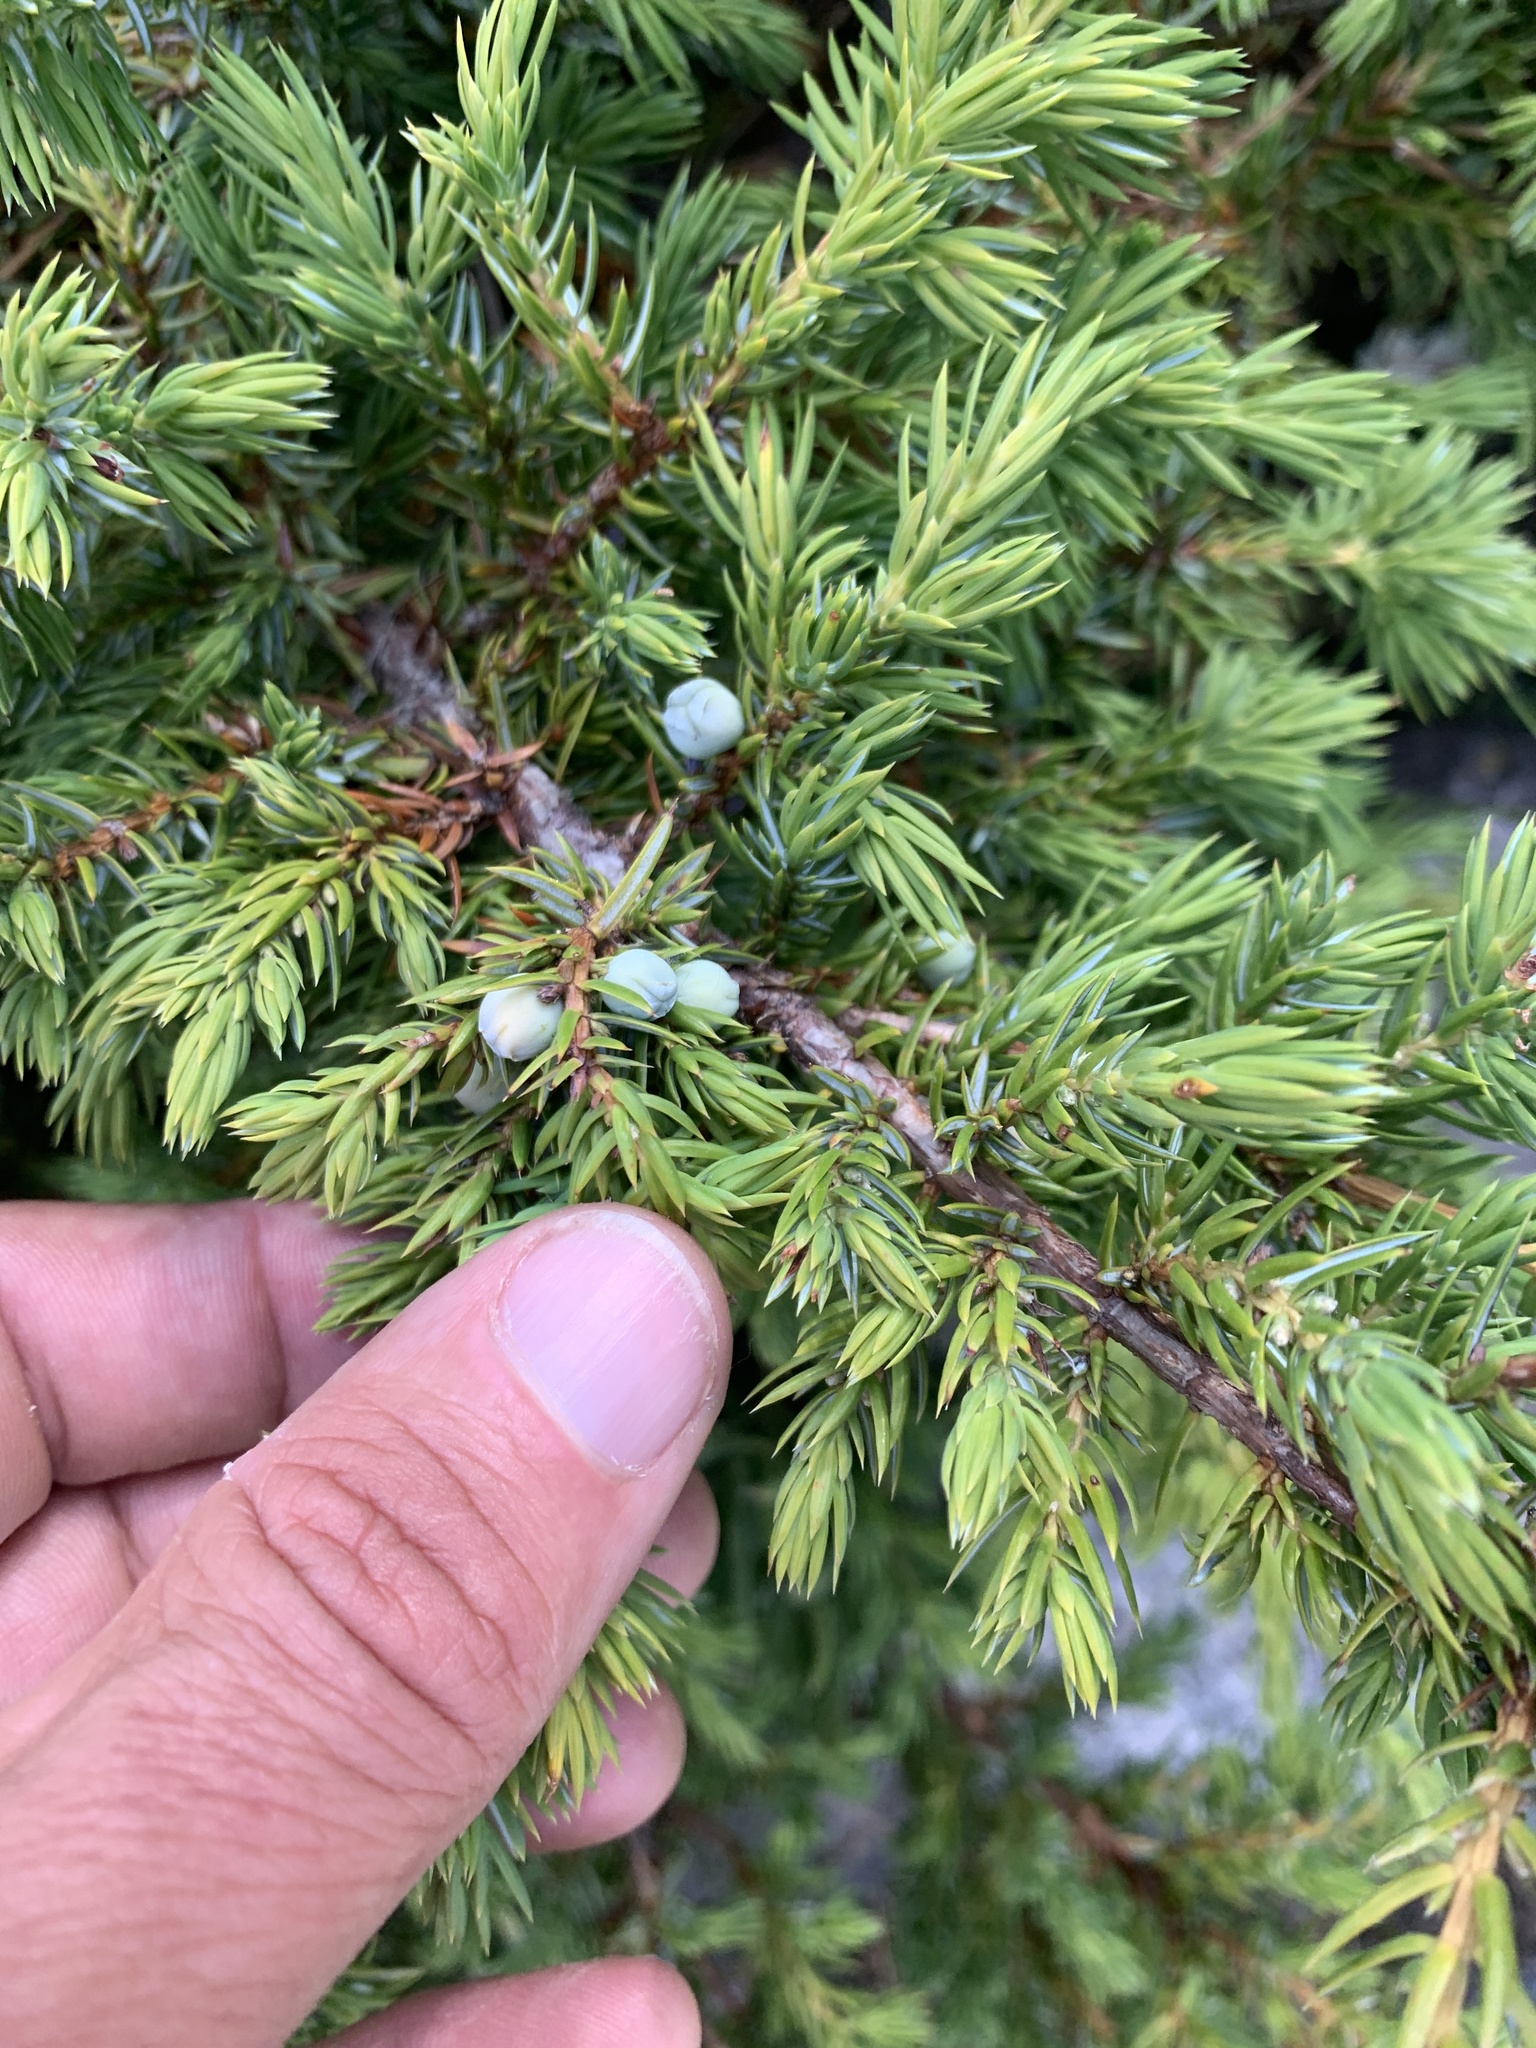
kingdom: Plantae
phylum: Tracheophyta
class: Pinopsida
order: Pinales
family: Cupressaceae
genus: Juniperus
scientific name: Juniperus communis
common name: Common juniper
